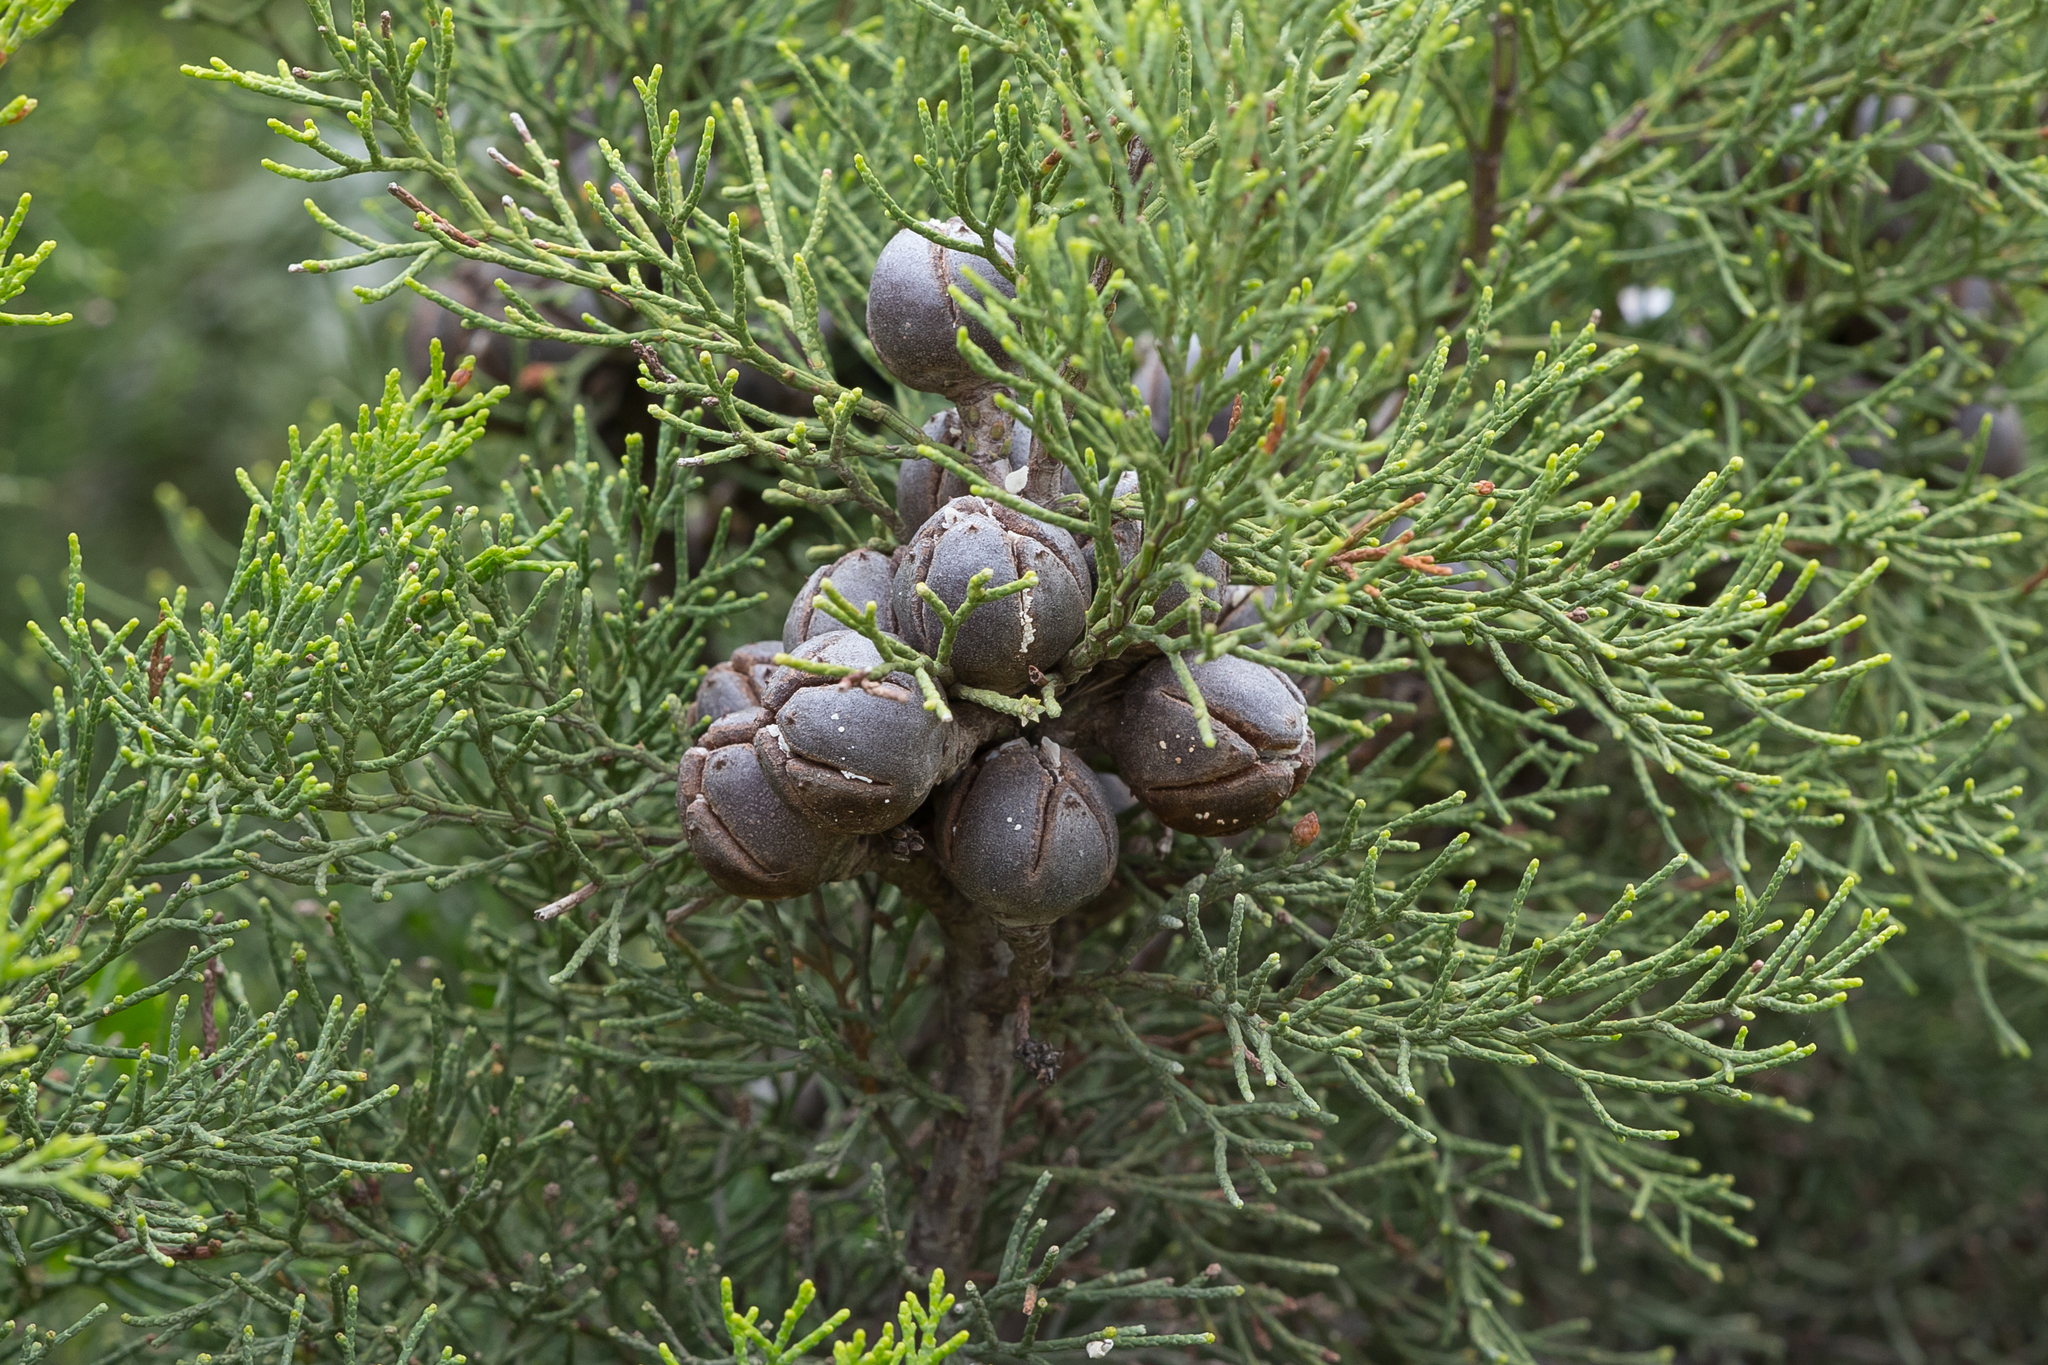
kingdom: Plantae
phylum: Tracheophyta
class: Pinopsida
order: Pinales
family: Cupressaceae
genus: Callitris
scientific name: Callitris canescens
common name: Morrison's cypress-pine
